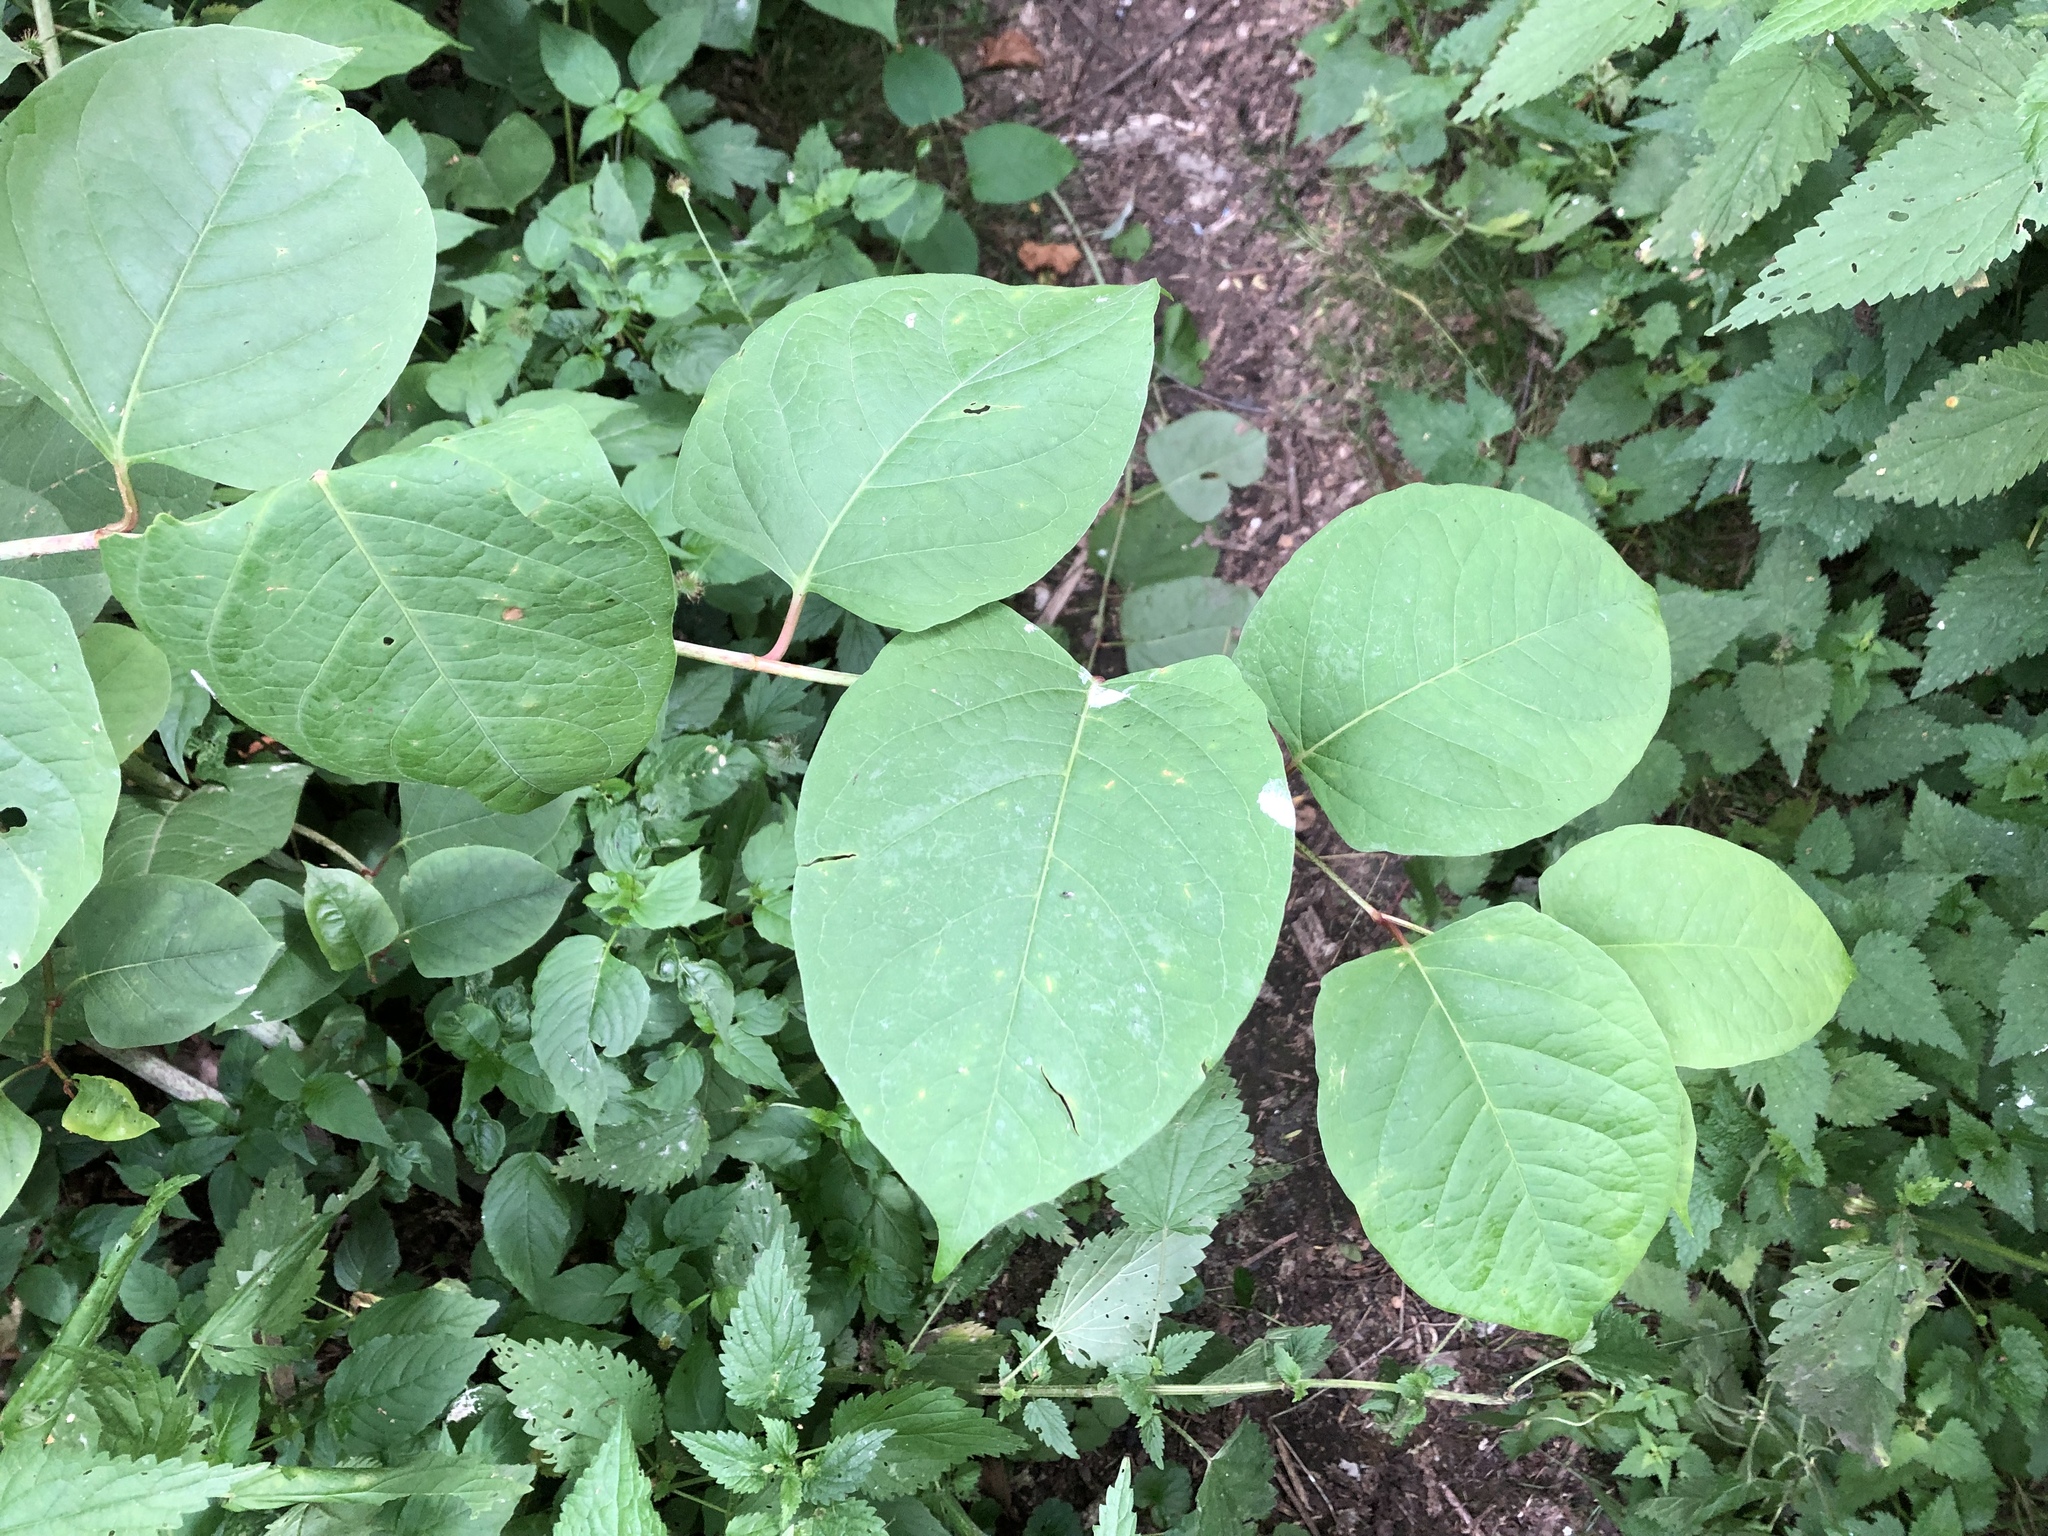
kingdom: Plantae
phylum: Tracheophyta
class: Magnoliopsida
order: Caryophyllales
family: Polygonaceae
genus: Reynoutria
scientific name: Reynoutria bohemica
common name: Bohemian knotweed
